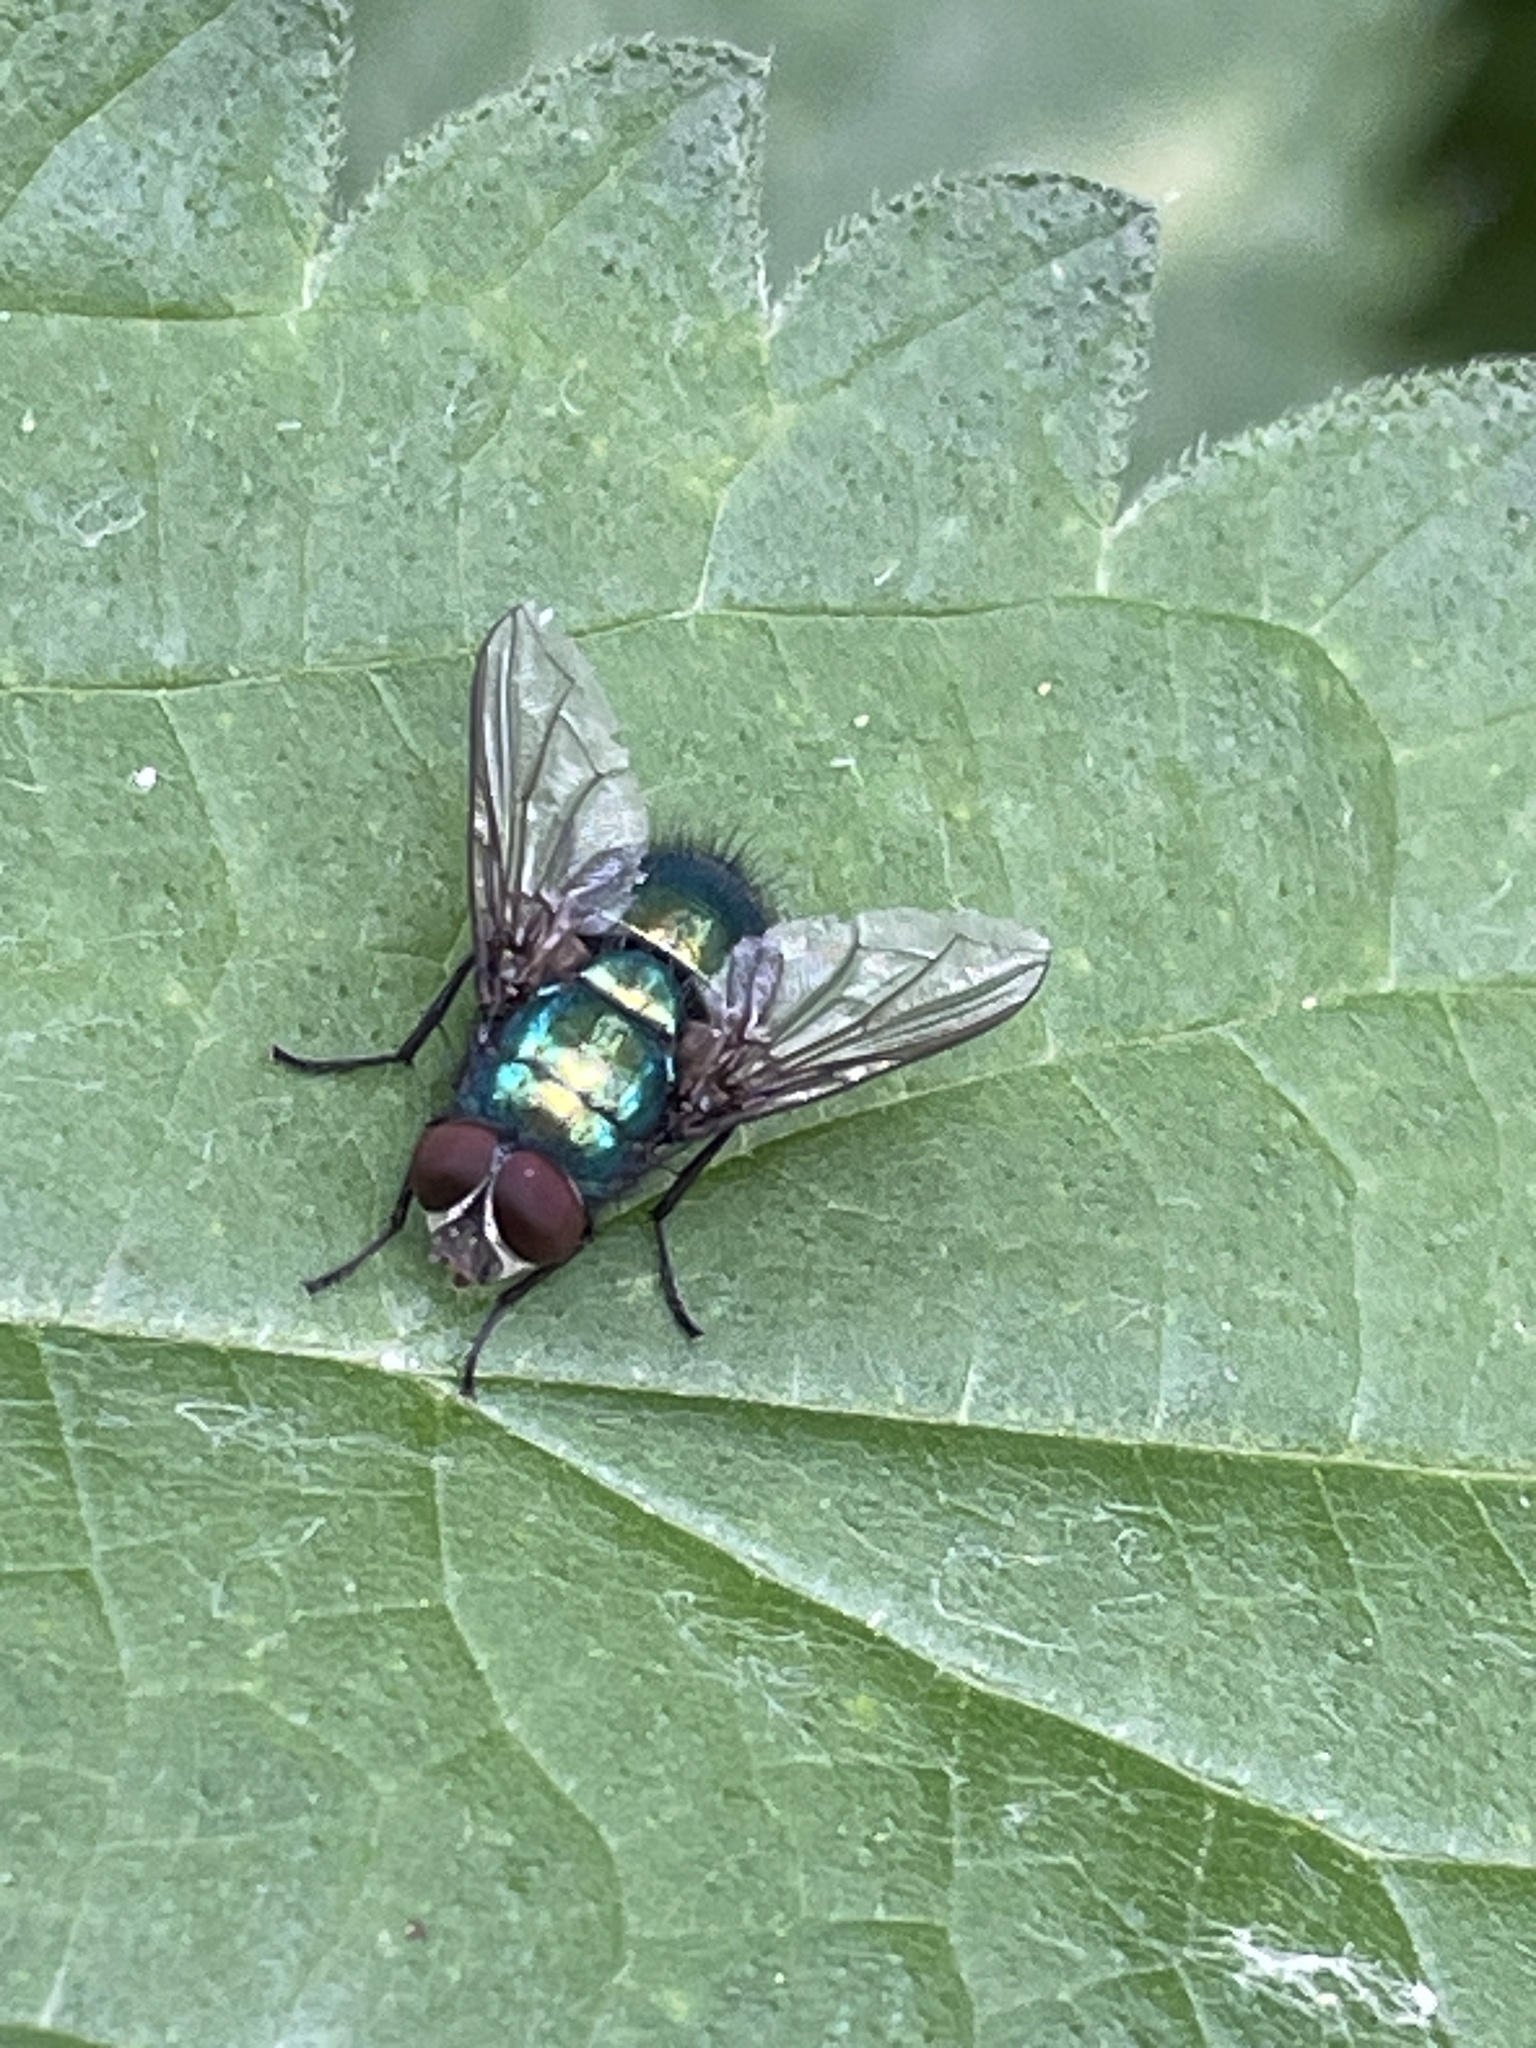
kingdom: Animalia
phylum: Arthropoda
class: Insecta
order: Diptera
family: Calliphoridae
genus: Lucilia
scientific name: Lucilia
